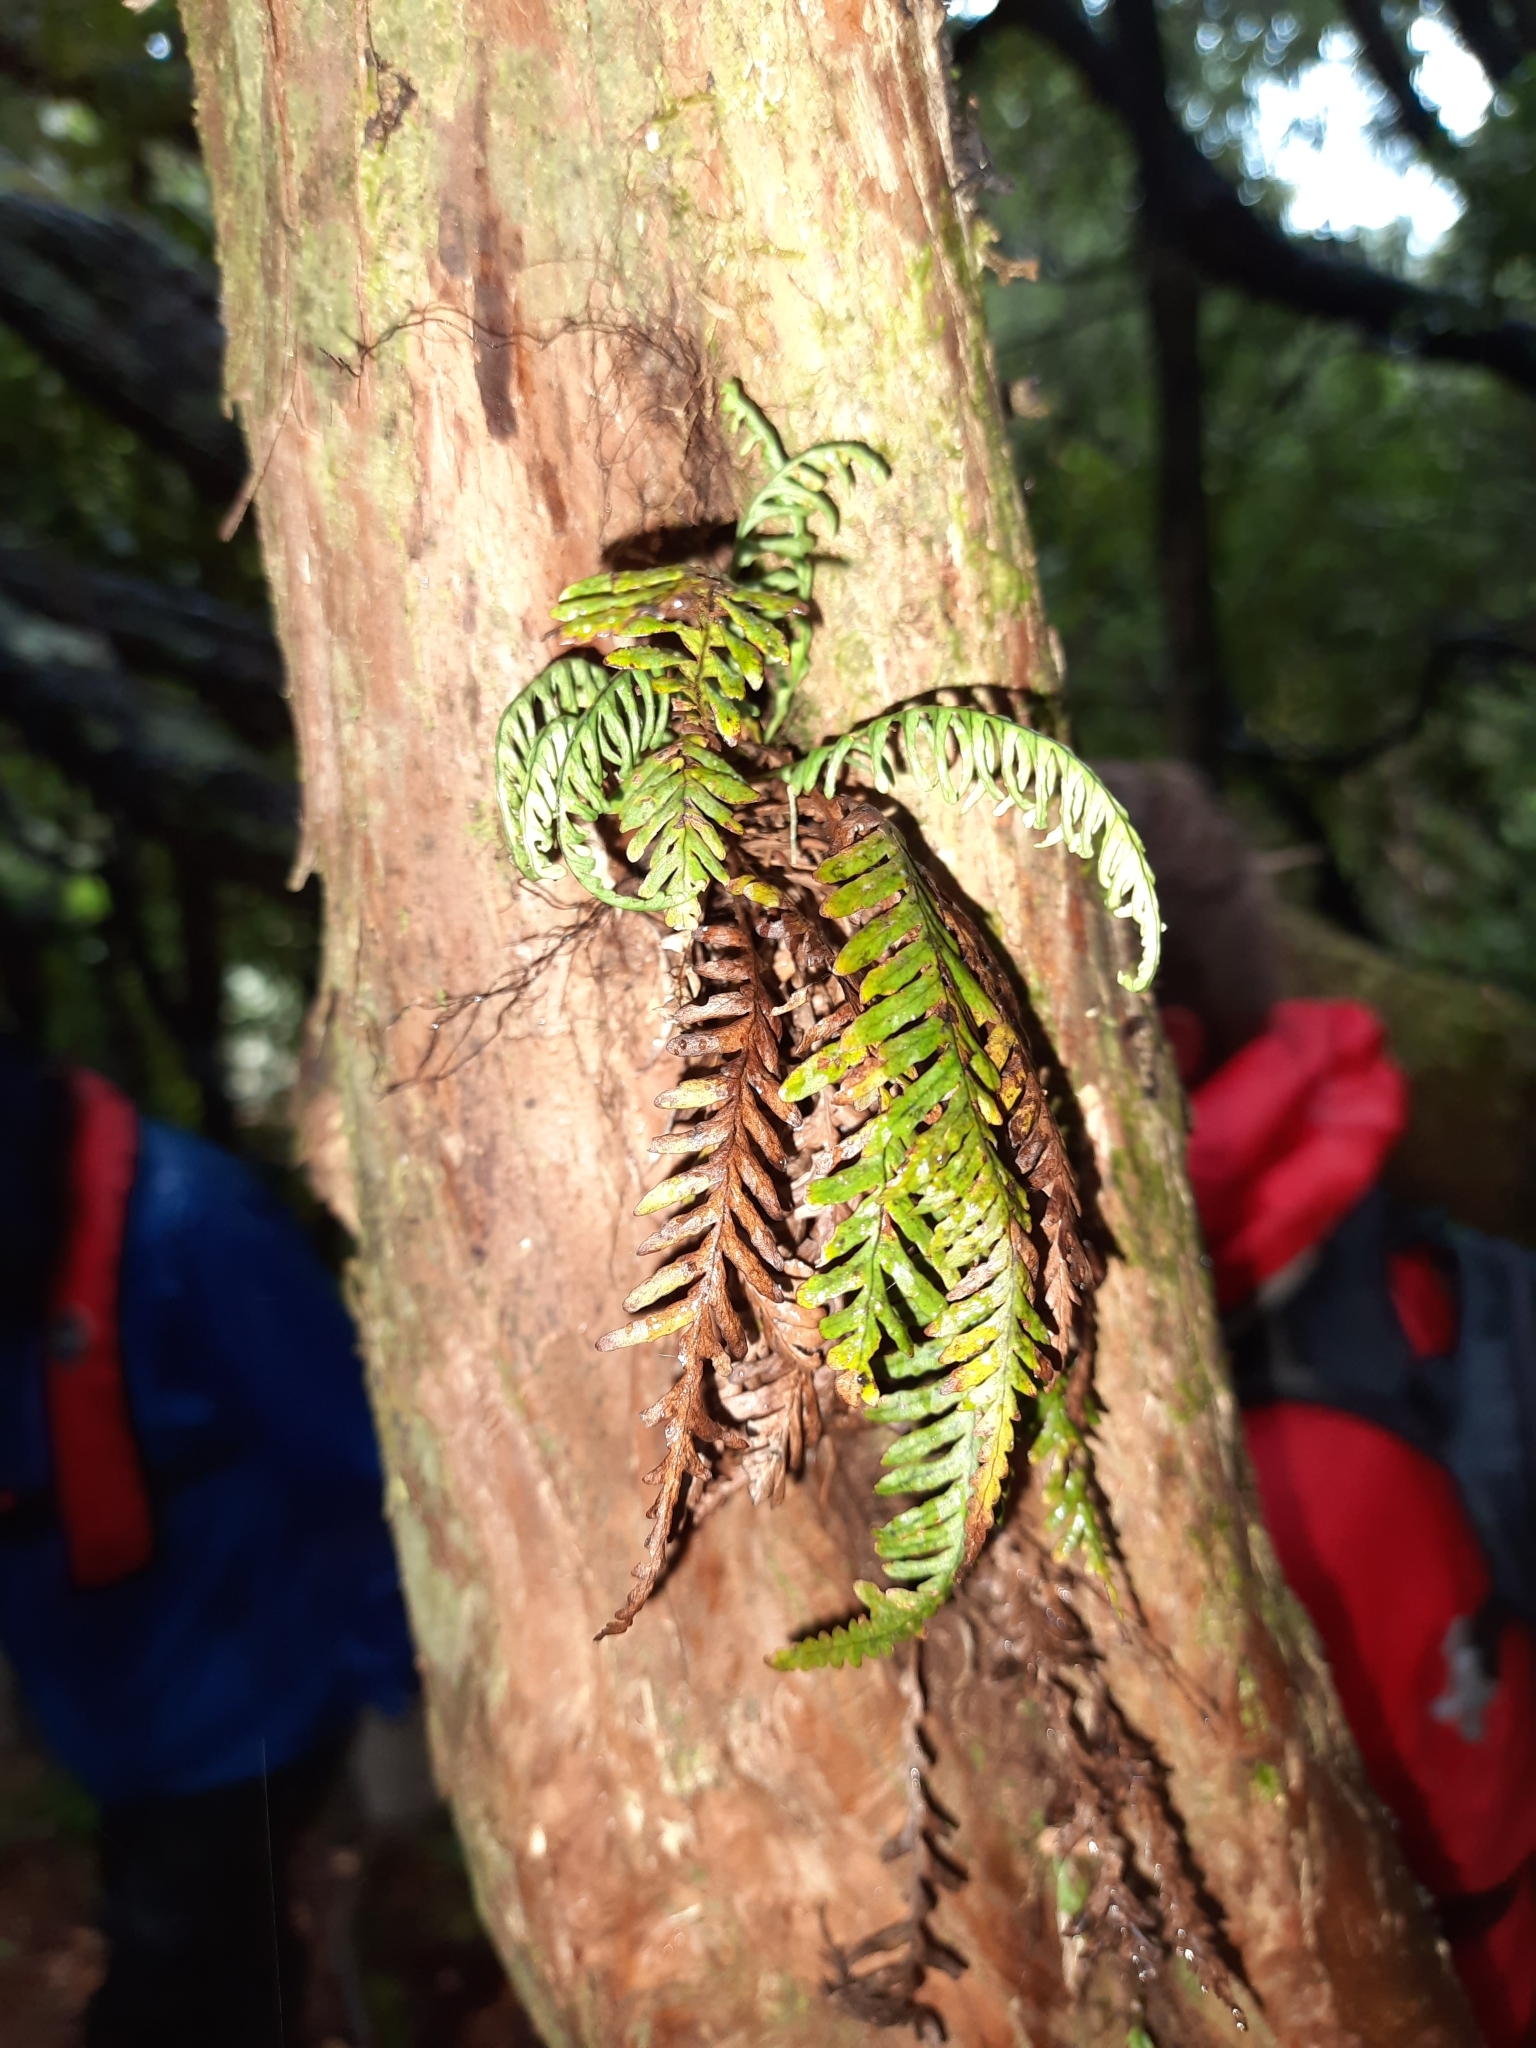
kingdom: Plantae
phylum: Tracheophyta
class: Polypodiopsida
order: Polypodiales
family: Polypodiaceae
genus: Notogrammitis
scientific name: Notogrammitis heterophylla
